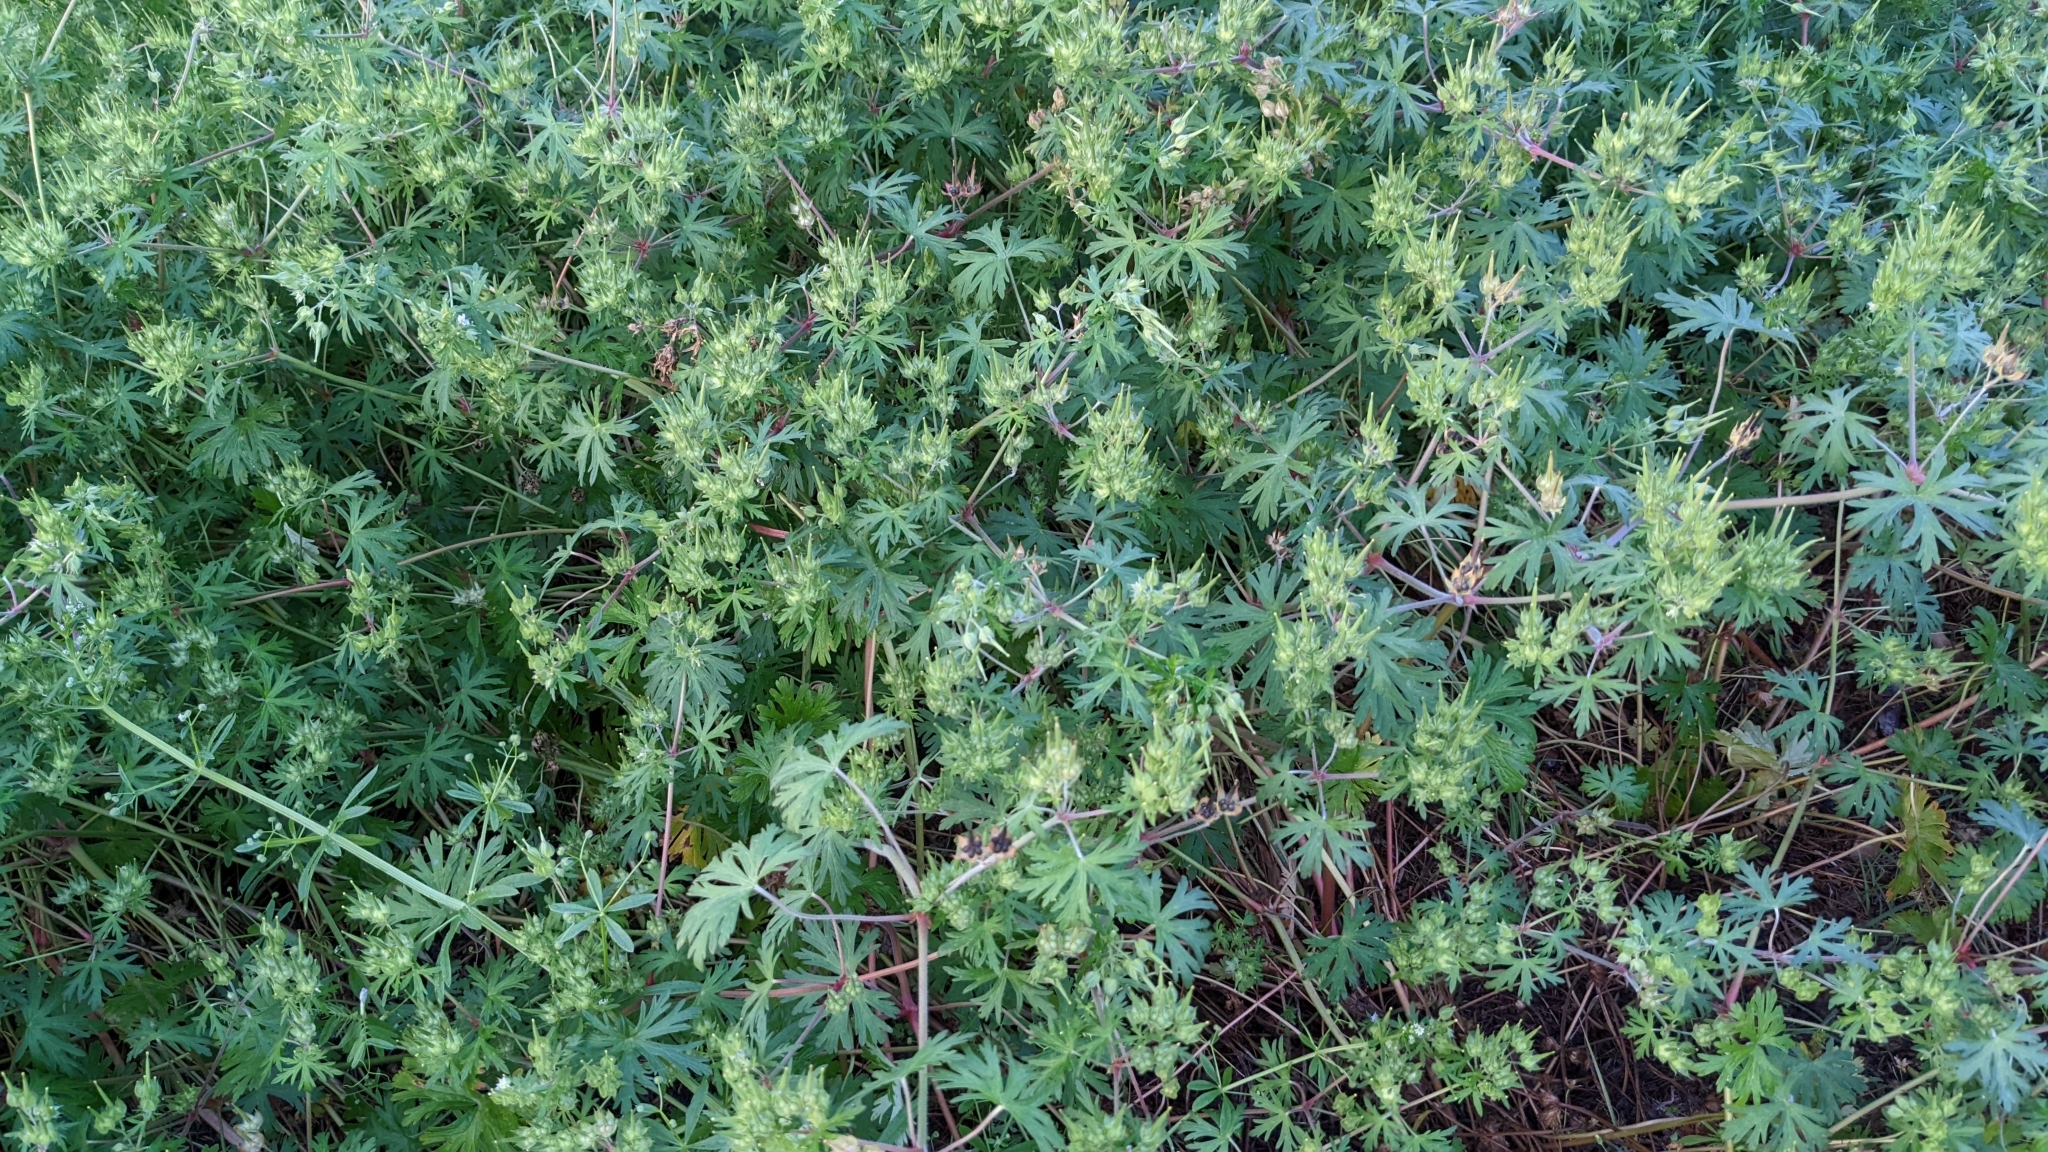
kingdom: Plantae
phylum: Tracheophyta
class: Magnoliopsida
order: Geraniales
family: Geraniaceae
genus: Geranium
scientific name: Geranium carolinianum
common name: Carolina crane's-bill
